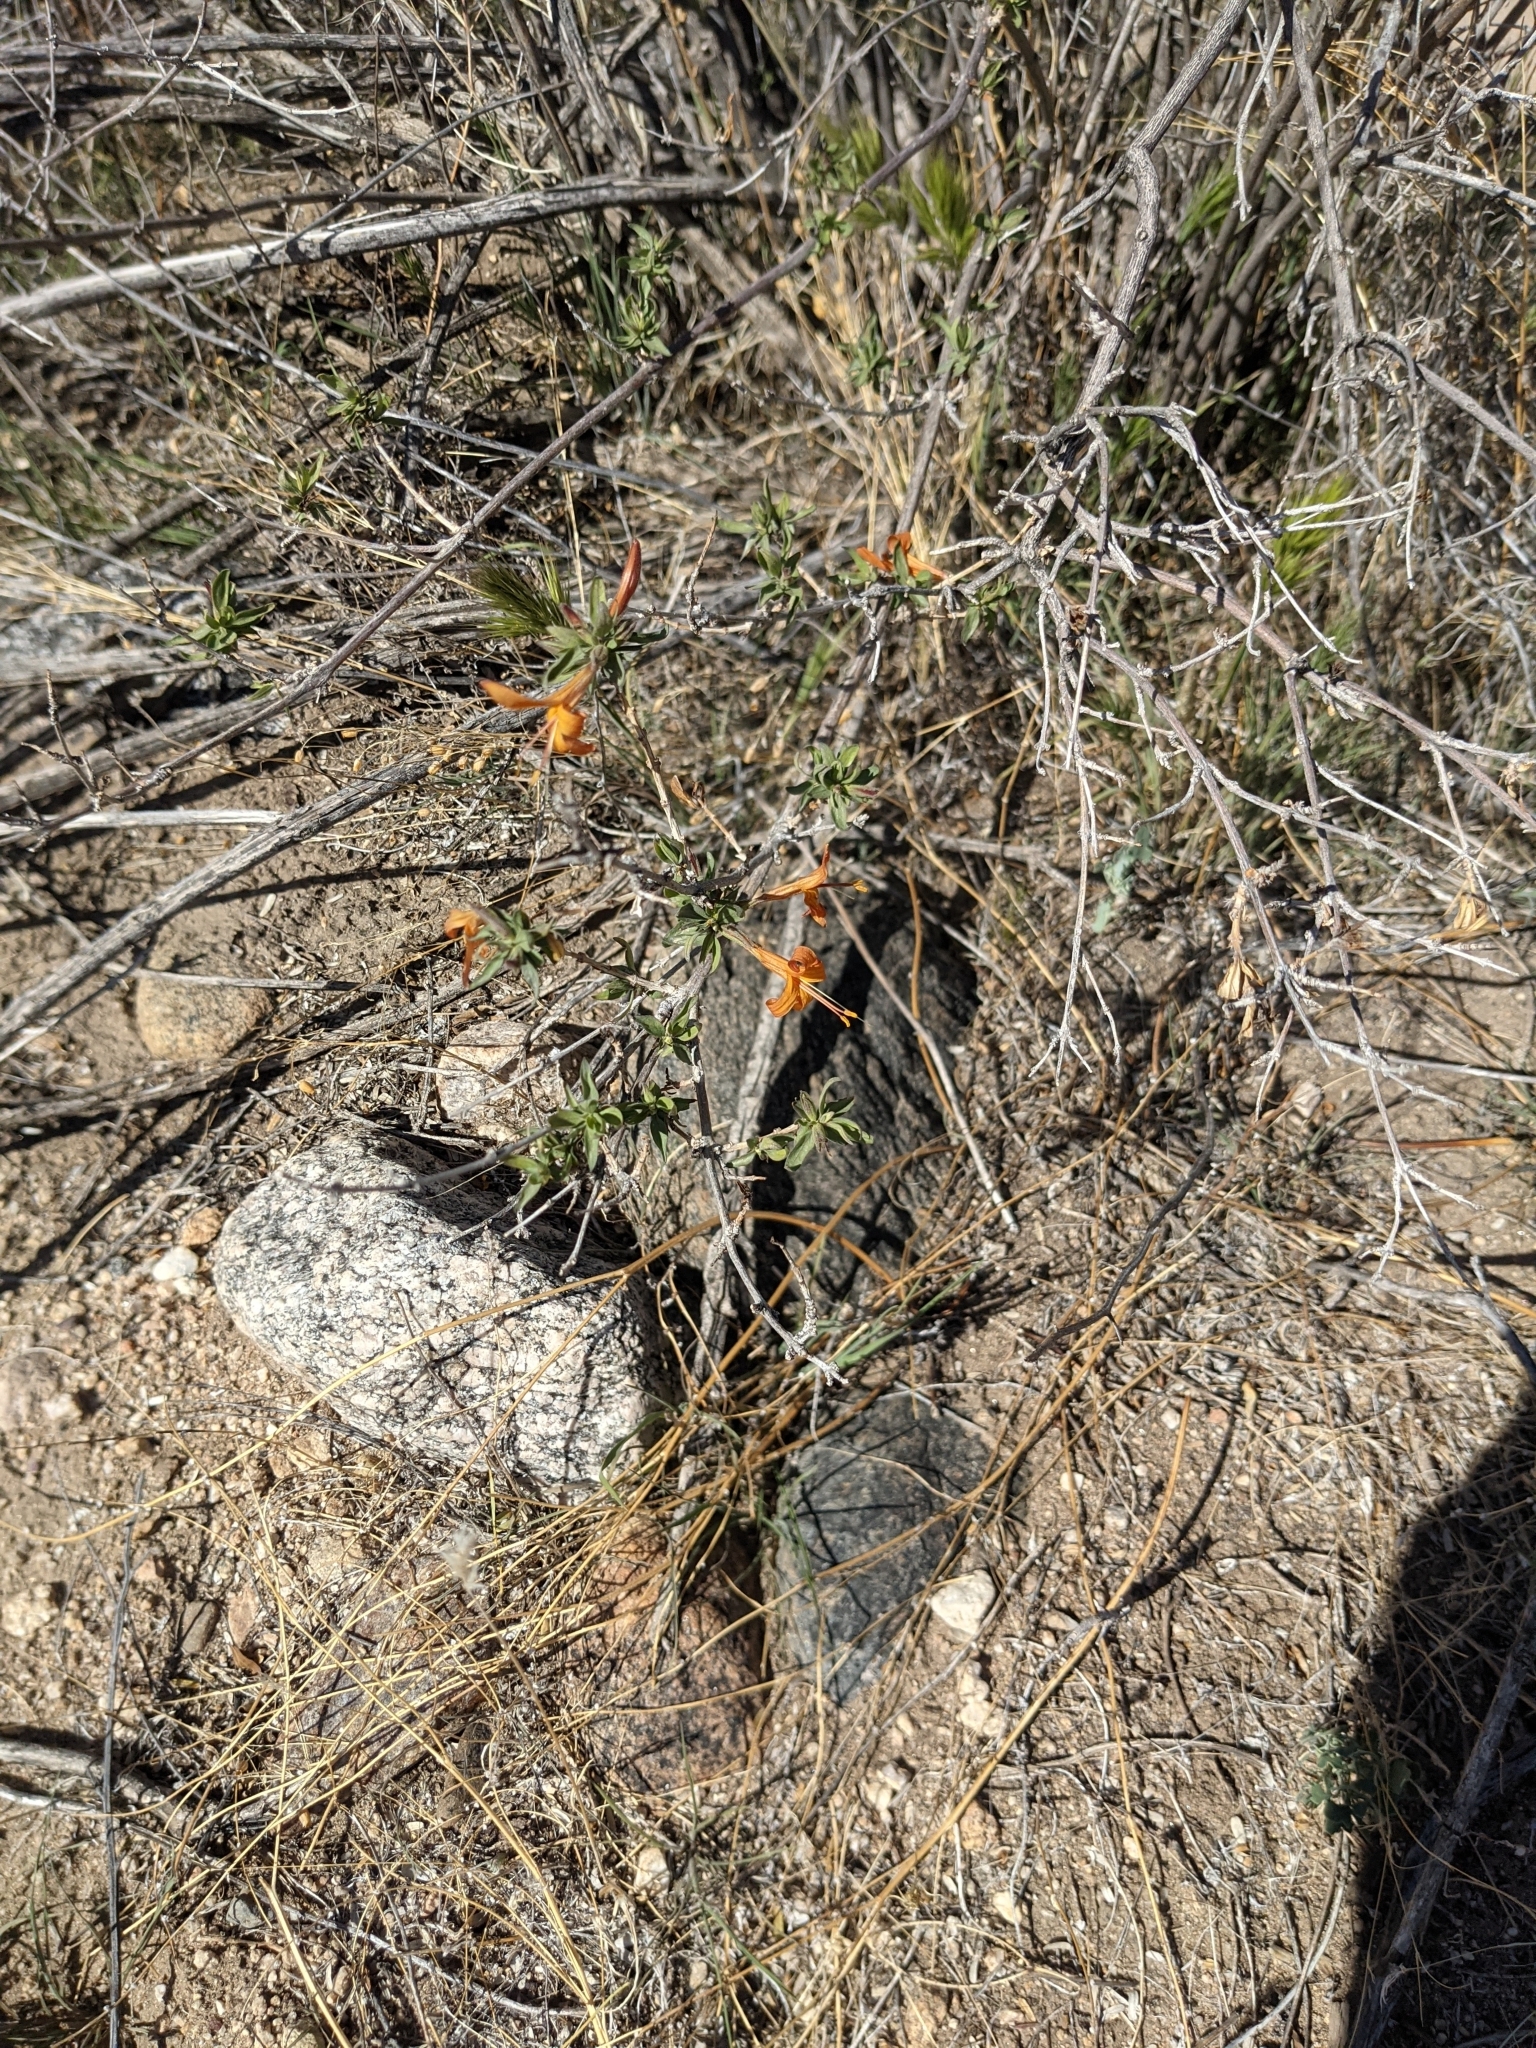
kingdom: Plantae
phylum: Tracheophyta
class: Magnoliopsida
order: Lamiales
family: Acanthaceae
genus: Anisacanthus
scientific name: Anisacanthus thurberi
